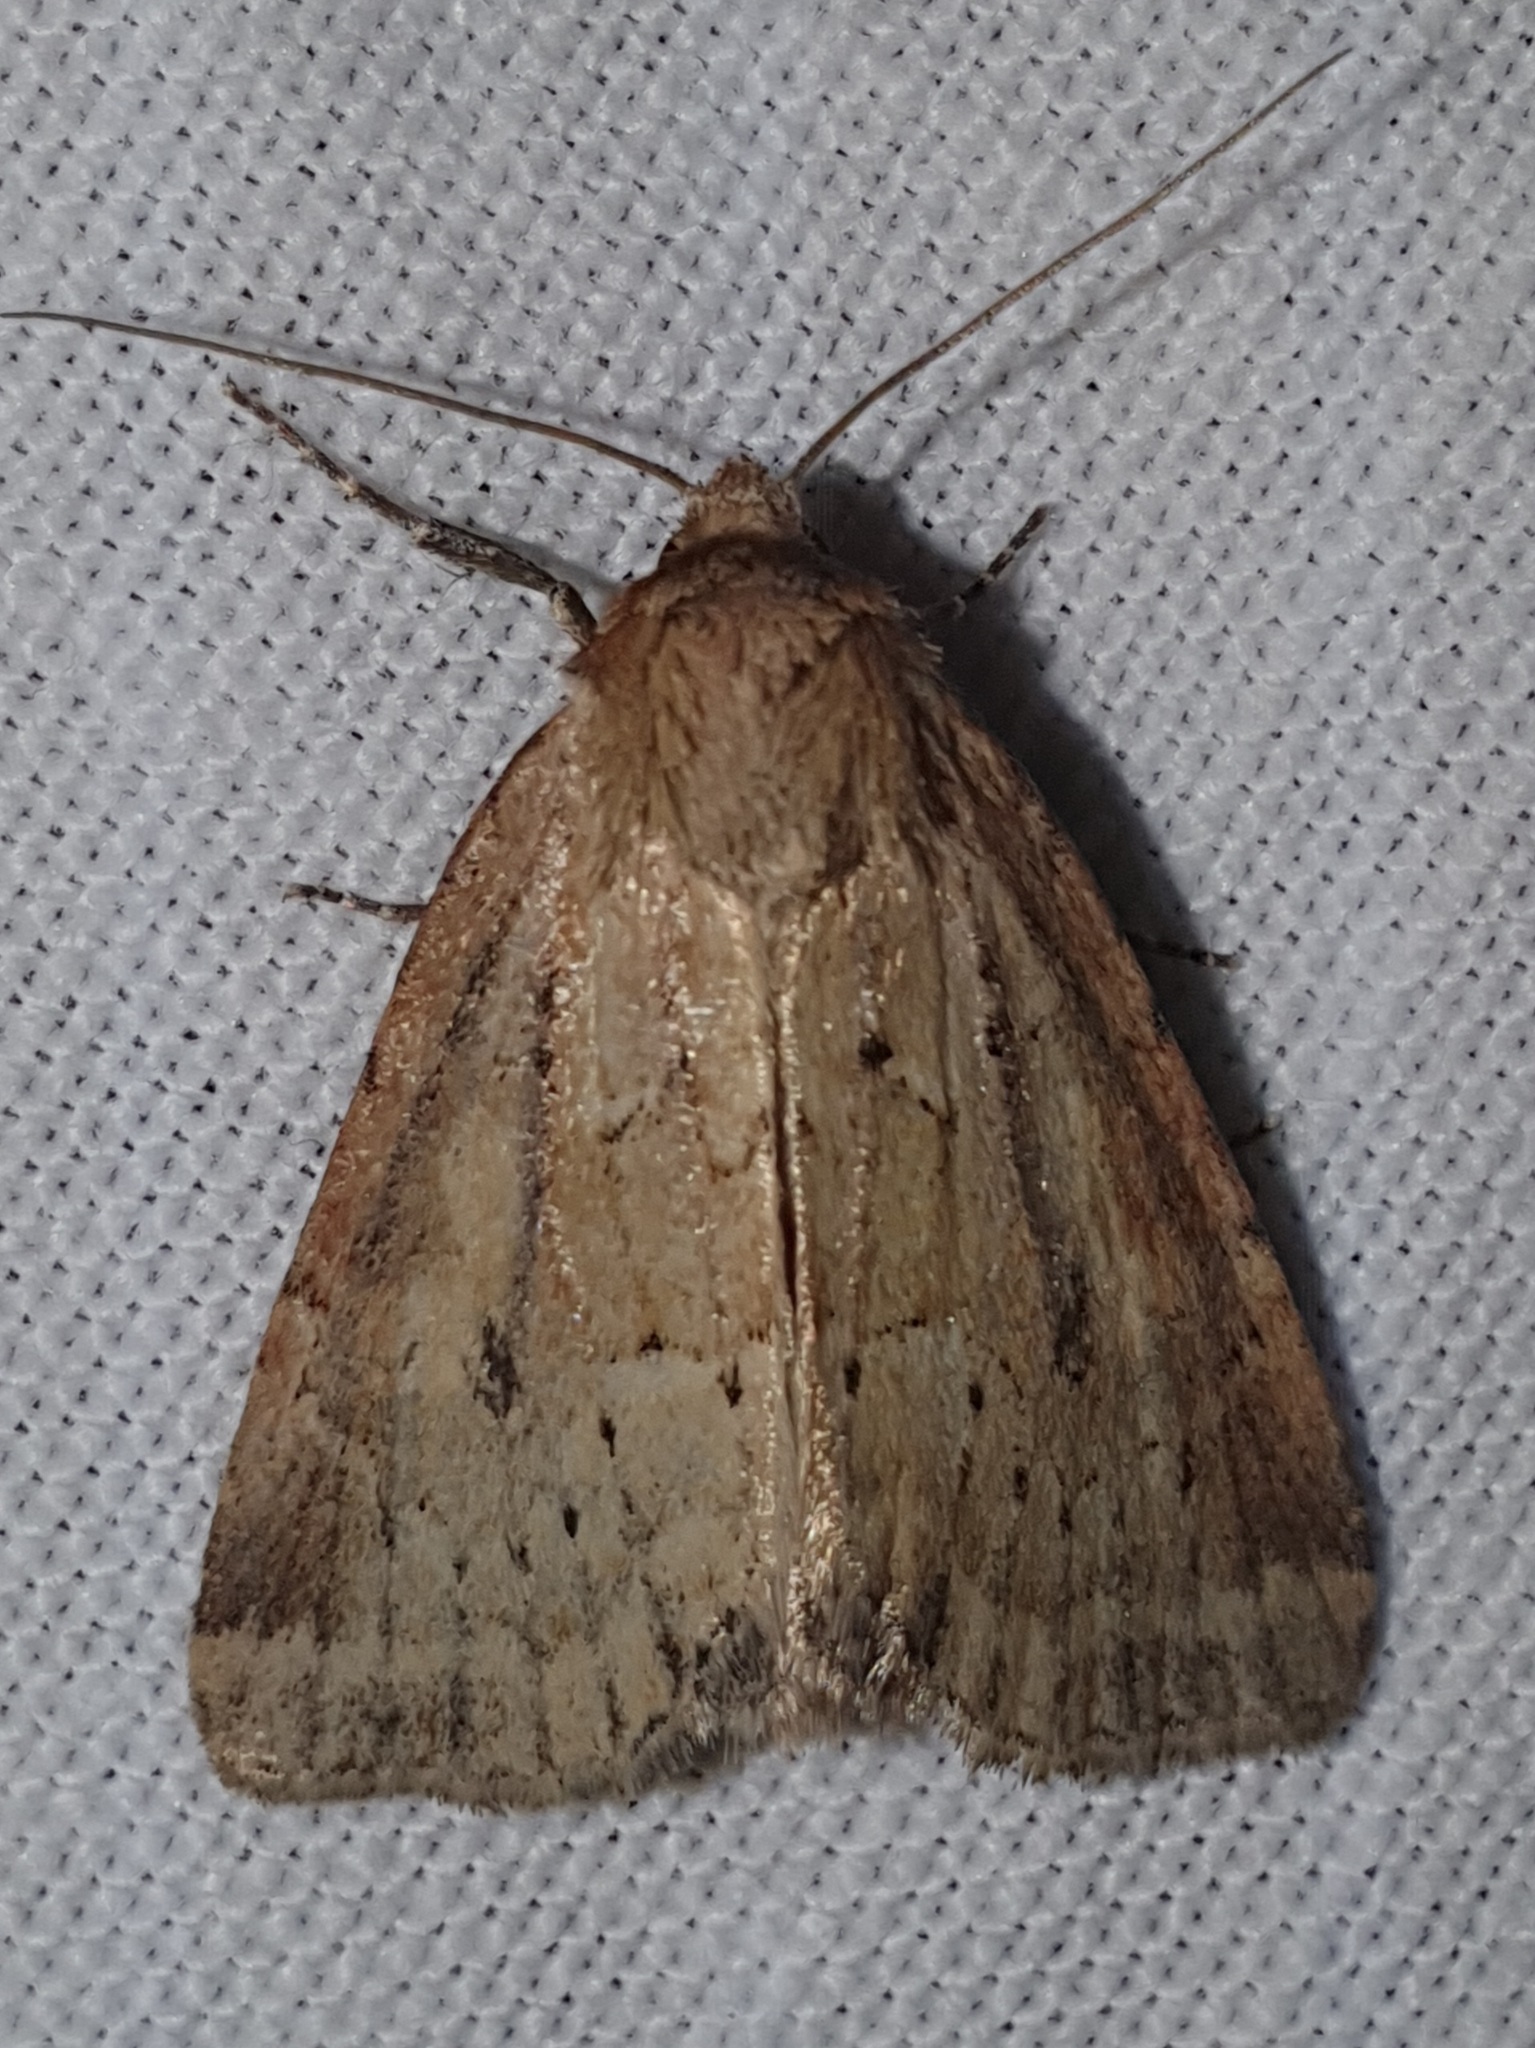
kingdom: Animalia
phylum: Arthropoda
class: Insecta
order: Lepidoptera
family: Noctuidae
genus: Photedes
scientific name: Photedes minima
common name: Small dotted buff
